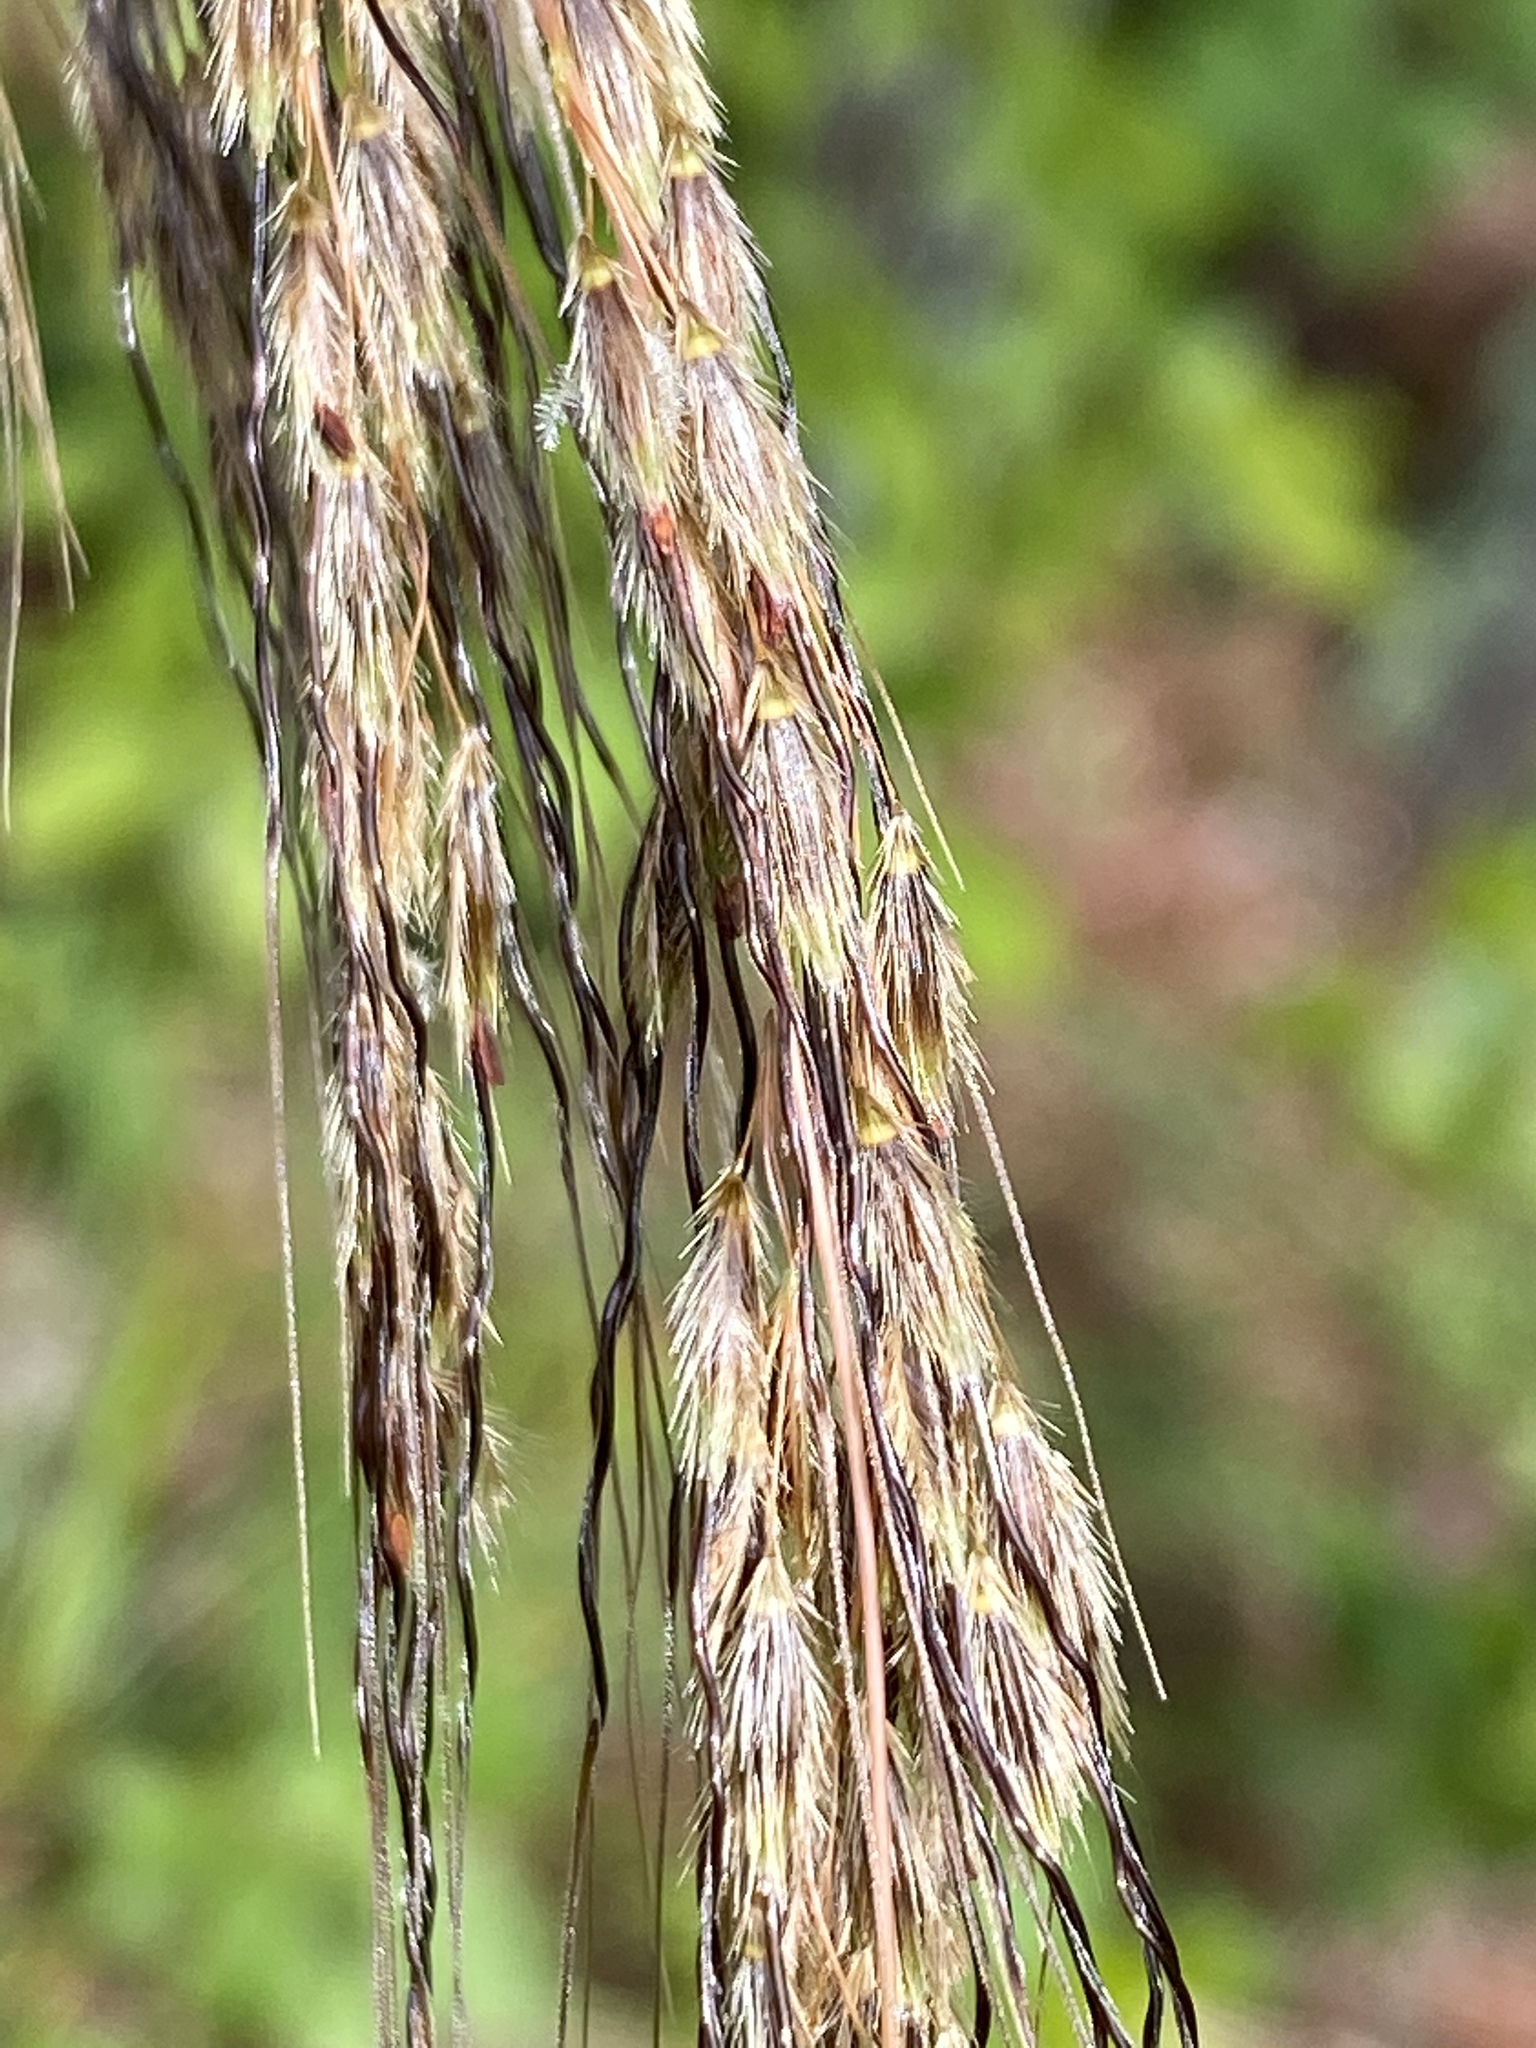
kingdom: Plantae
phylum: Tracheophyta
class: Liliopsida
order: Poales
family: Poaceae
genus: Sorghastrum
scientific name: Sorghastrum elliottii
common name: Slender indian grass
